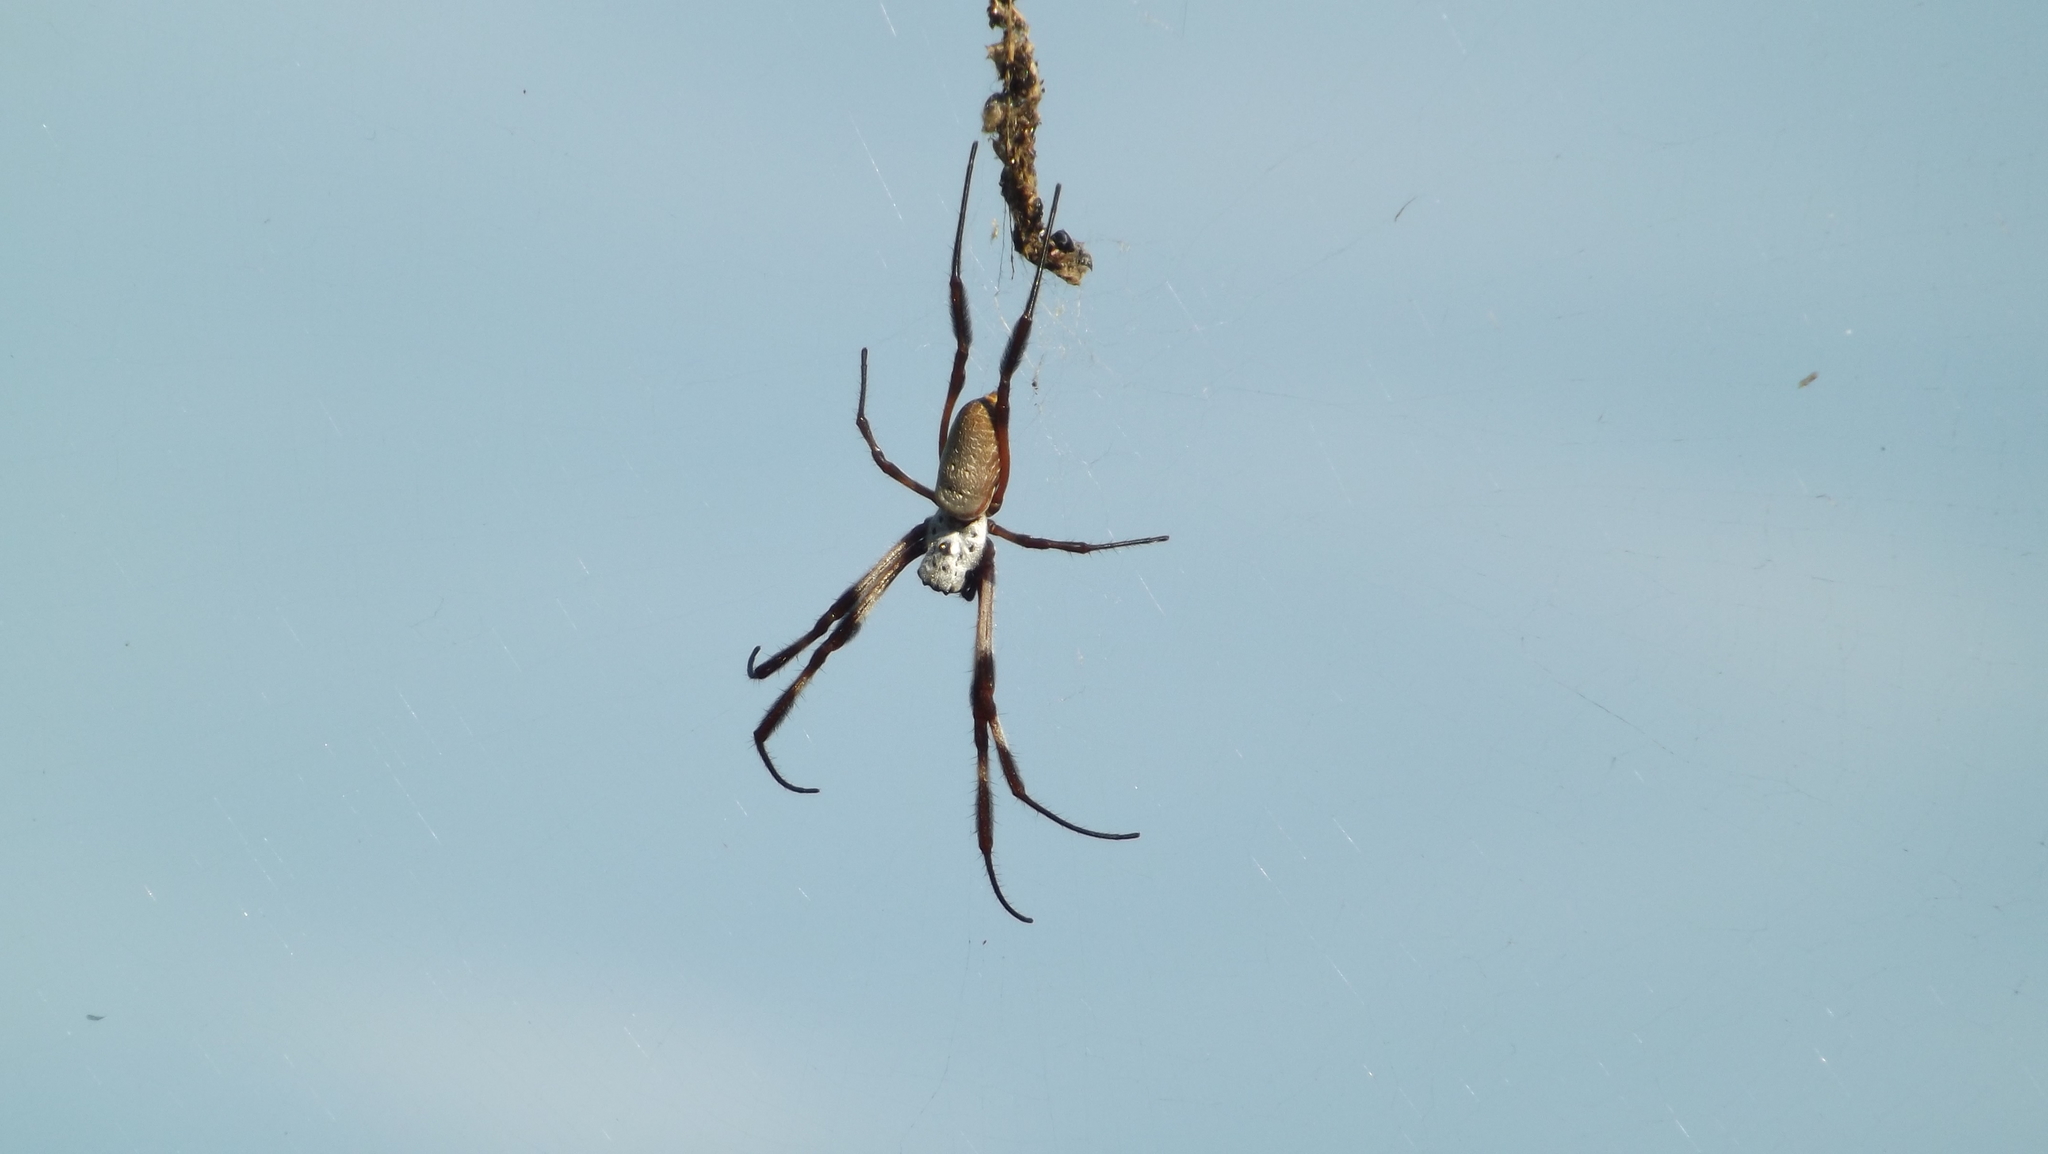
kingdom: Animalia
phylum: Arthropoda
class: Arachnida
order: Araneae
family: Araneidae
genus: Trichonephila
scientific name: Trichonephila edulis
